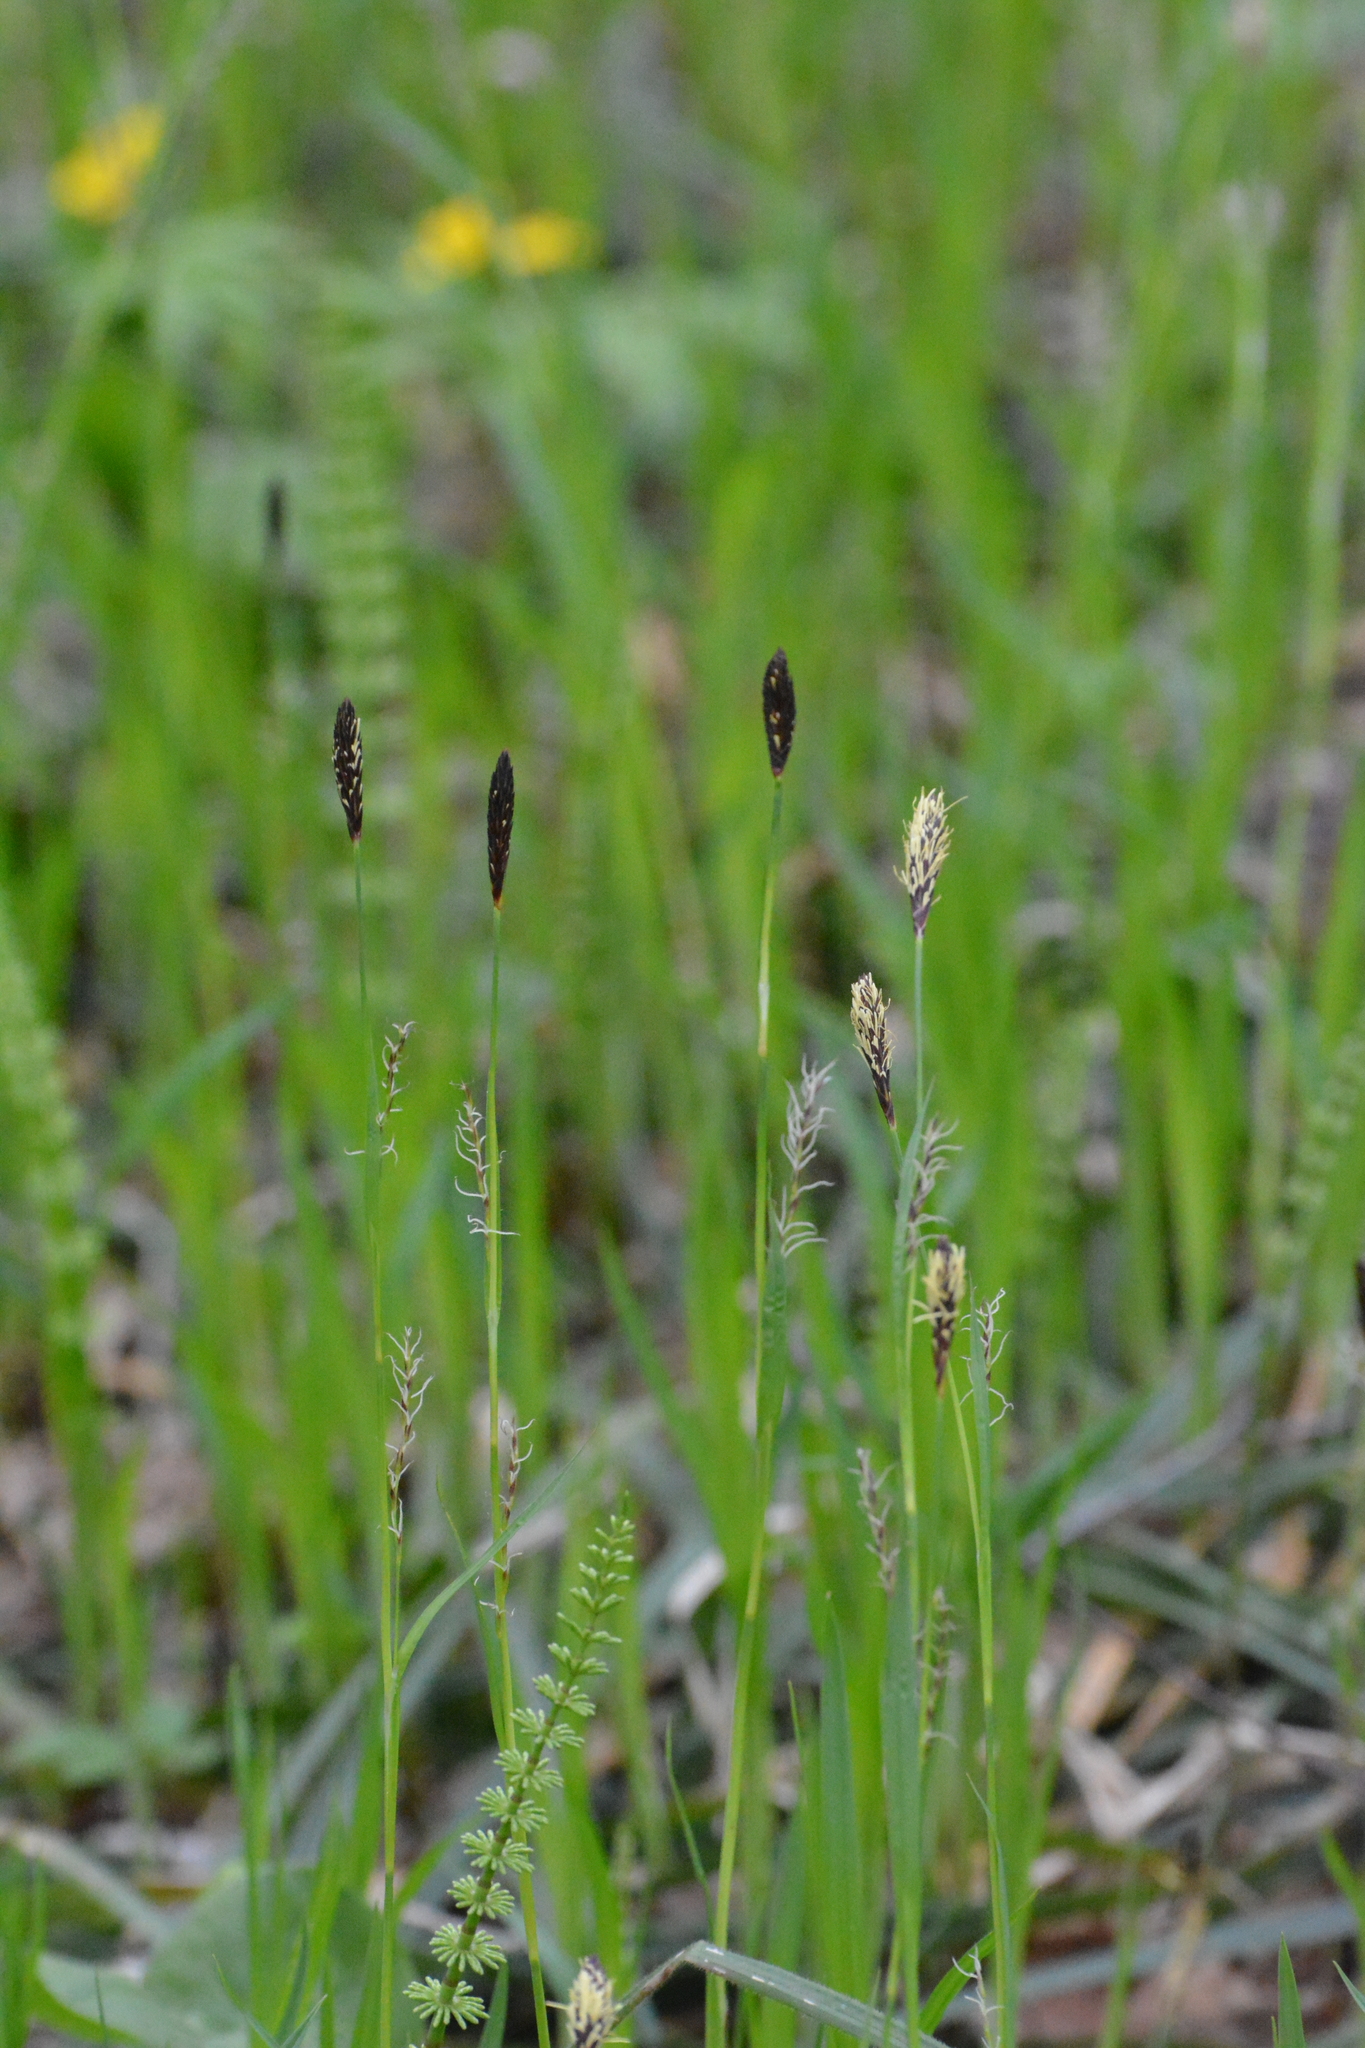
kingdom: Plantae
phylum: Tracheophyta
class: Liliopsida
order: Poales
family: Cyperaceae
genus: Carex
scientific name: Carex pilosa
